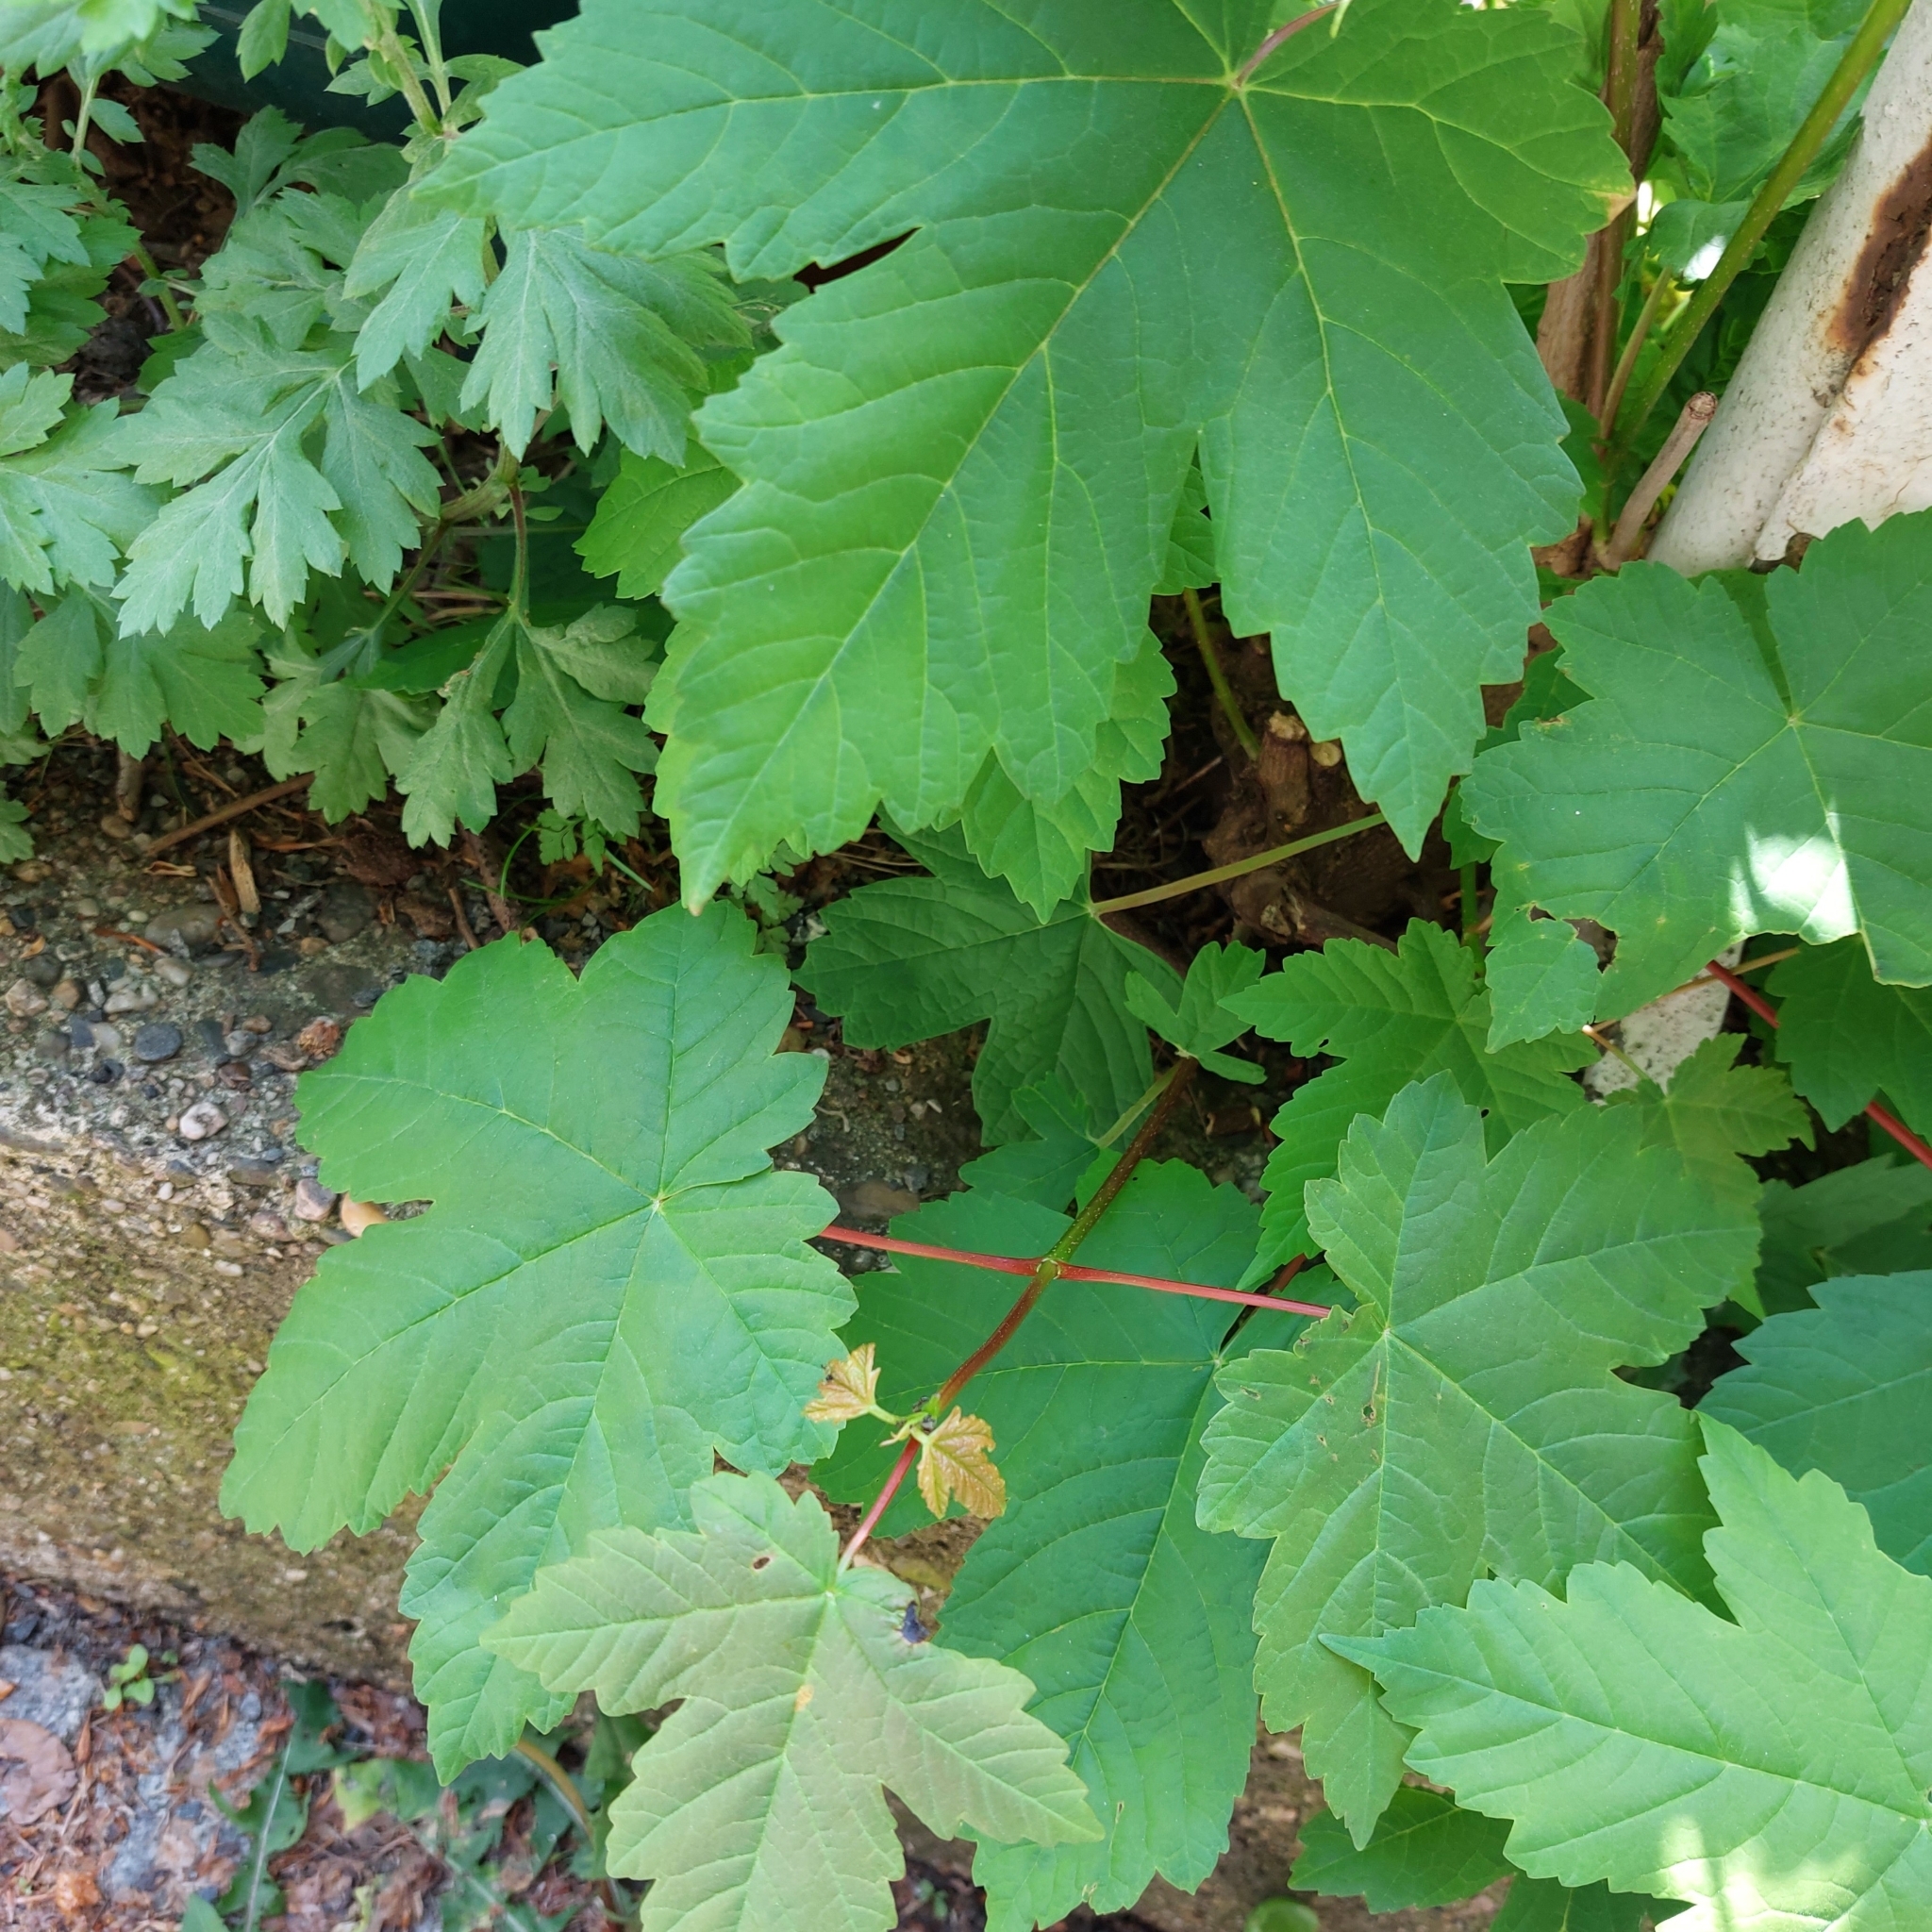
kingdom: Plantae
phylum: Tracheophyta
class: Magnoliopsida
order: Sapindales
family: Sapindaceae
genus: Acer
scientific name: Acer pseudoplatanus
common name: Sycamore
